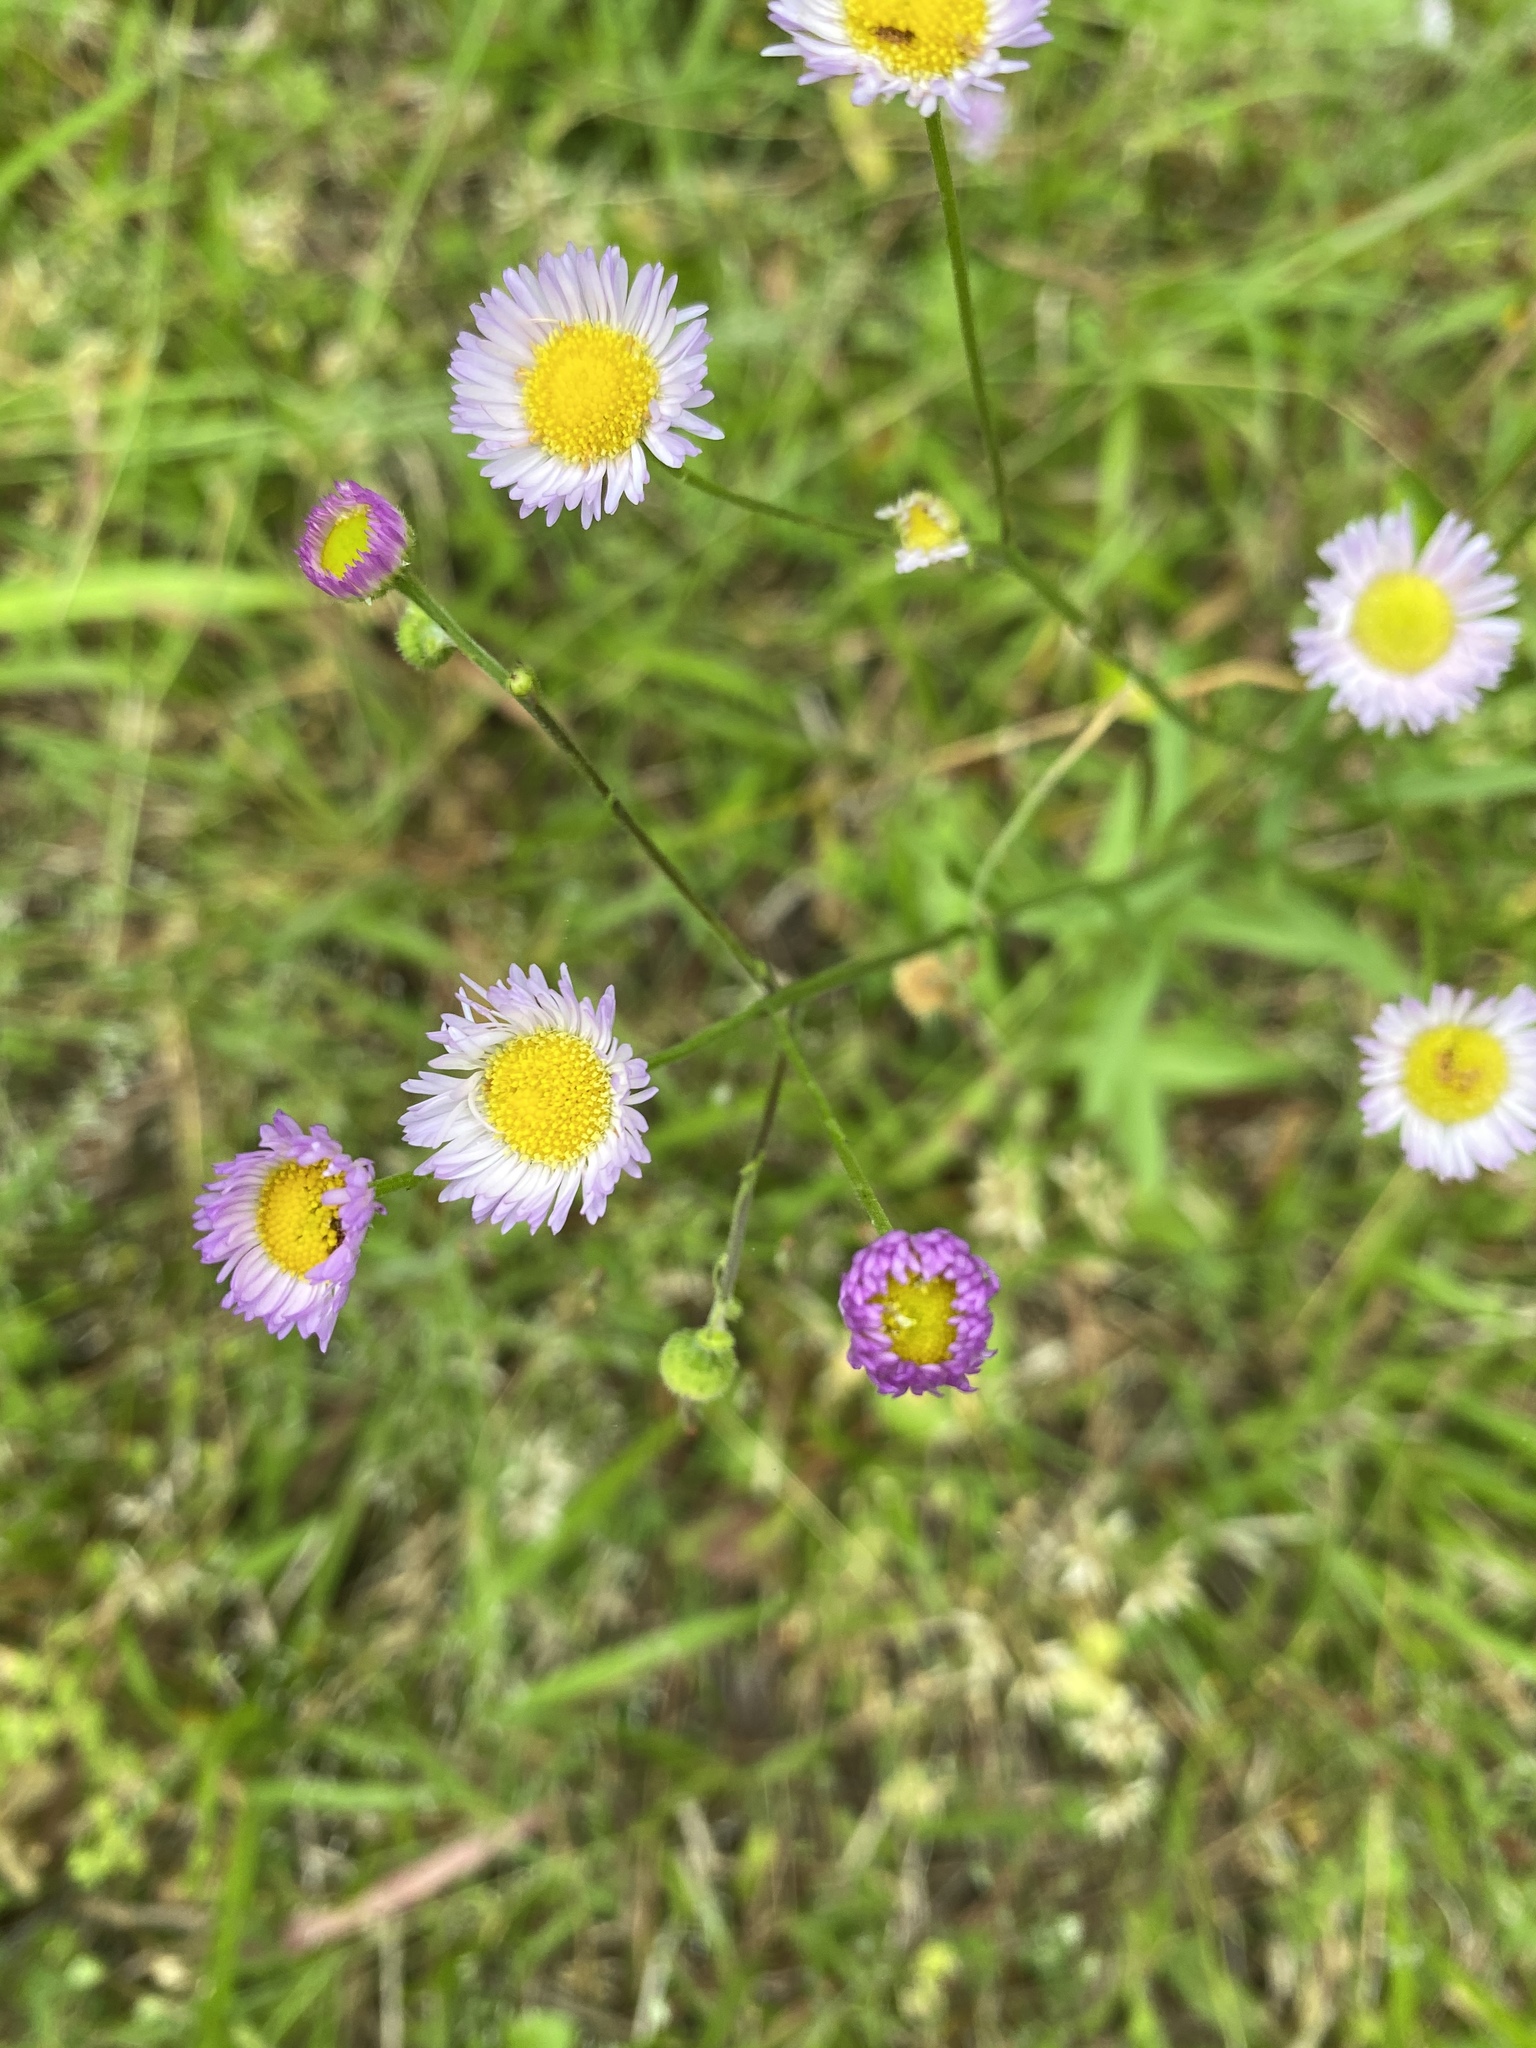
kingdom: Plantae
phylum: Tracheophyta
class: Magnoliopsida
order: Asterales
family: Asteraceae
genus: Erigeron
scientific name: Erigeron strigosus
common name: Common eastern fleabane
